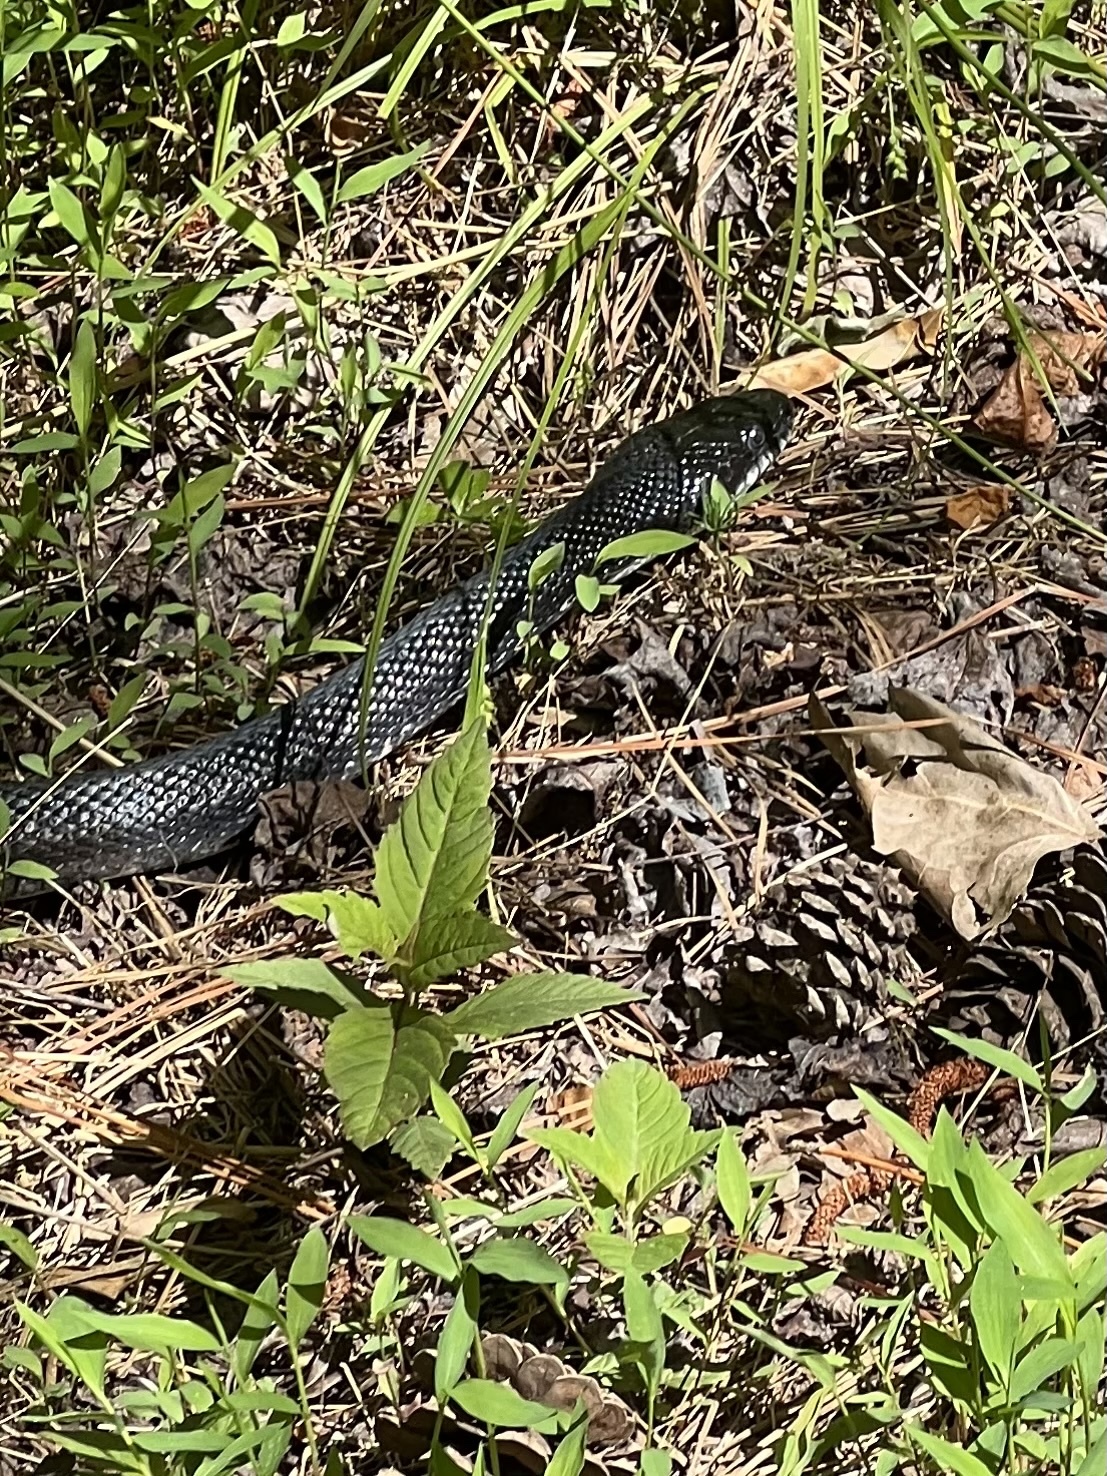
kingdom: Animalia
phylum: Chordata
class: Squamata
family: Colubridae
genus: Pantherophis
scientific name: Pantherophis alleghaniensis
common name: Eastern rat snake
